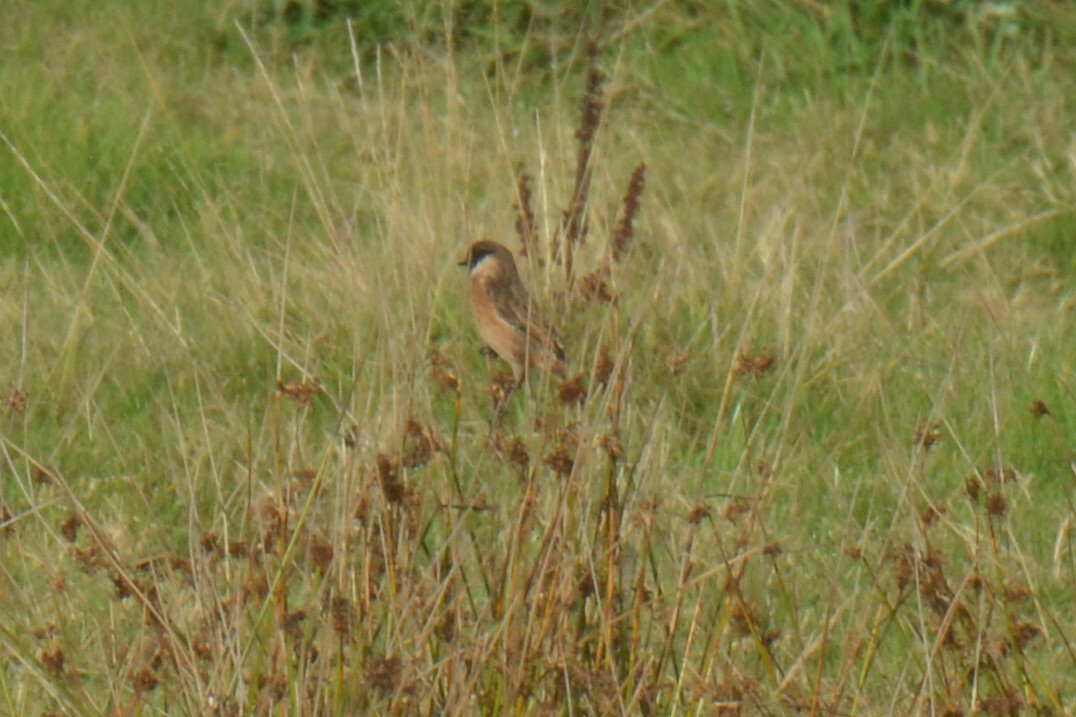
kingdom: Animalia
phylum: Chordata
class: Aves
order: Passeriformes
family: Muscicapidae
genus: Saxicola
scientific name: Saxicola rubicola
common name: European stonechat
